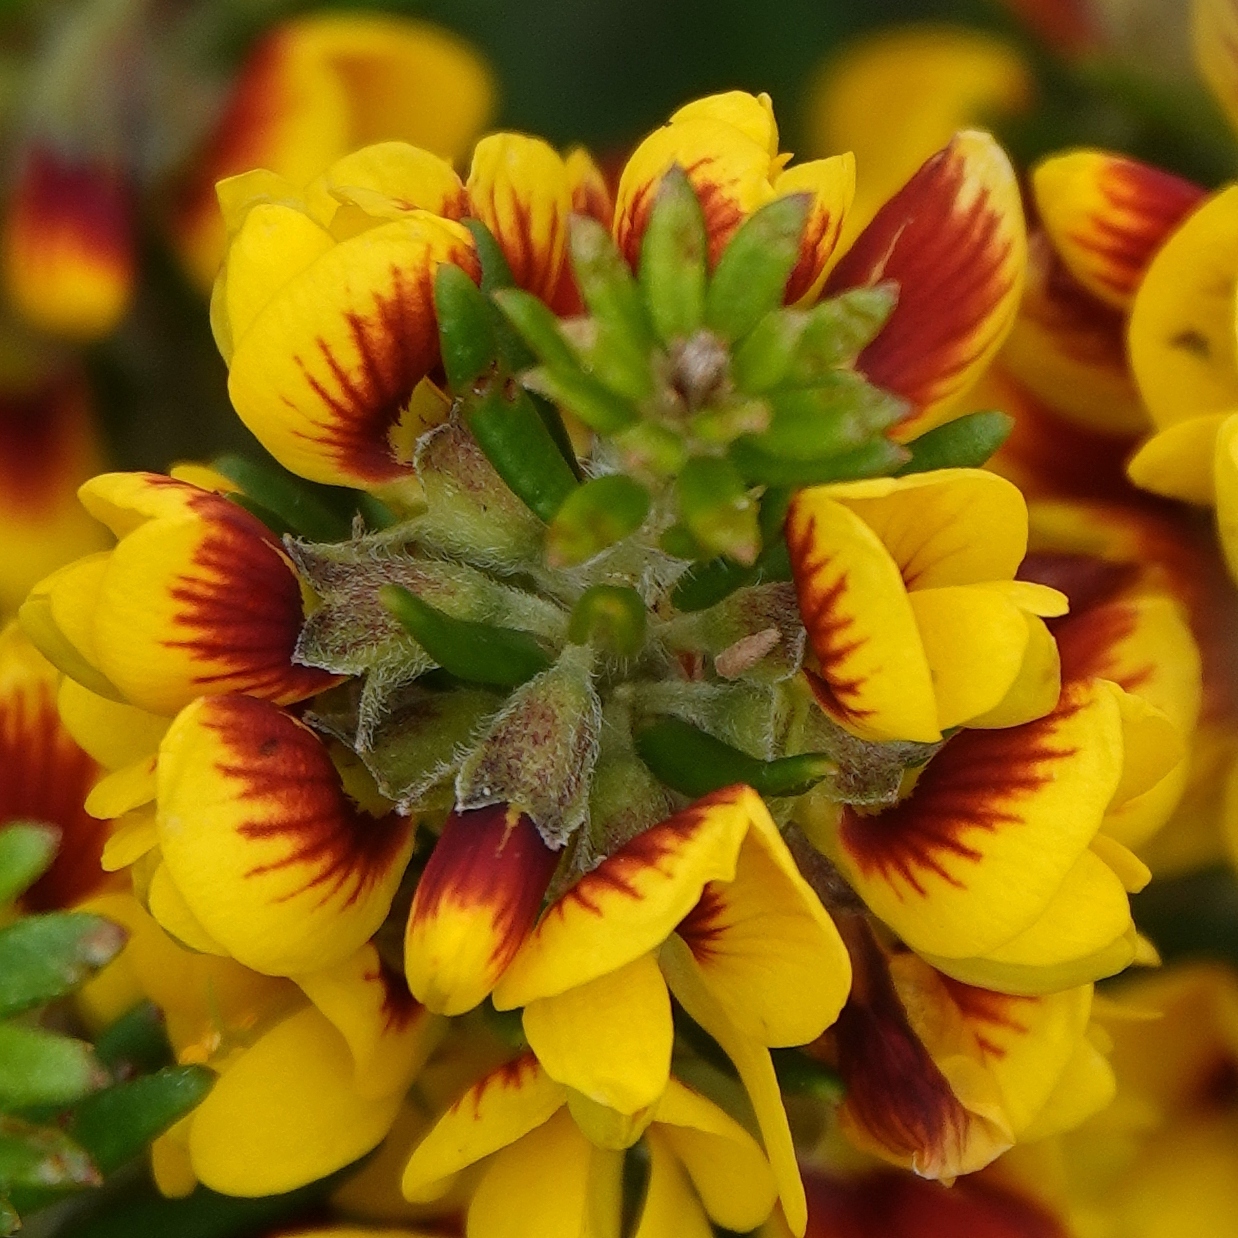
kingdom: Plantae
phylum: Tracheophyta
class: Magnoliopsida
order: Fabales
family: Fabaceae
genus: Aotus
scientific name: Aotus ericoides
